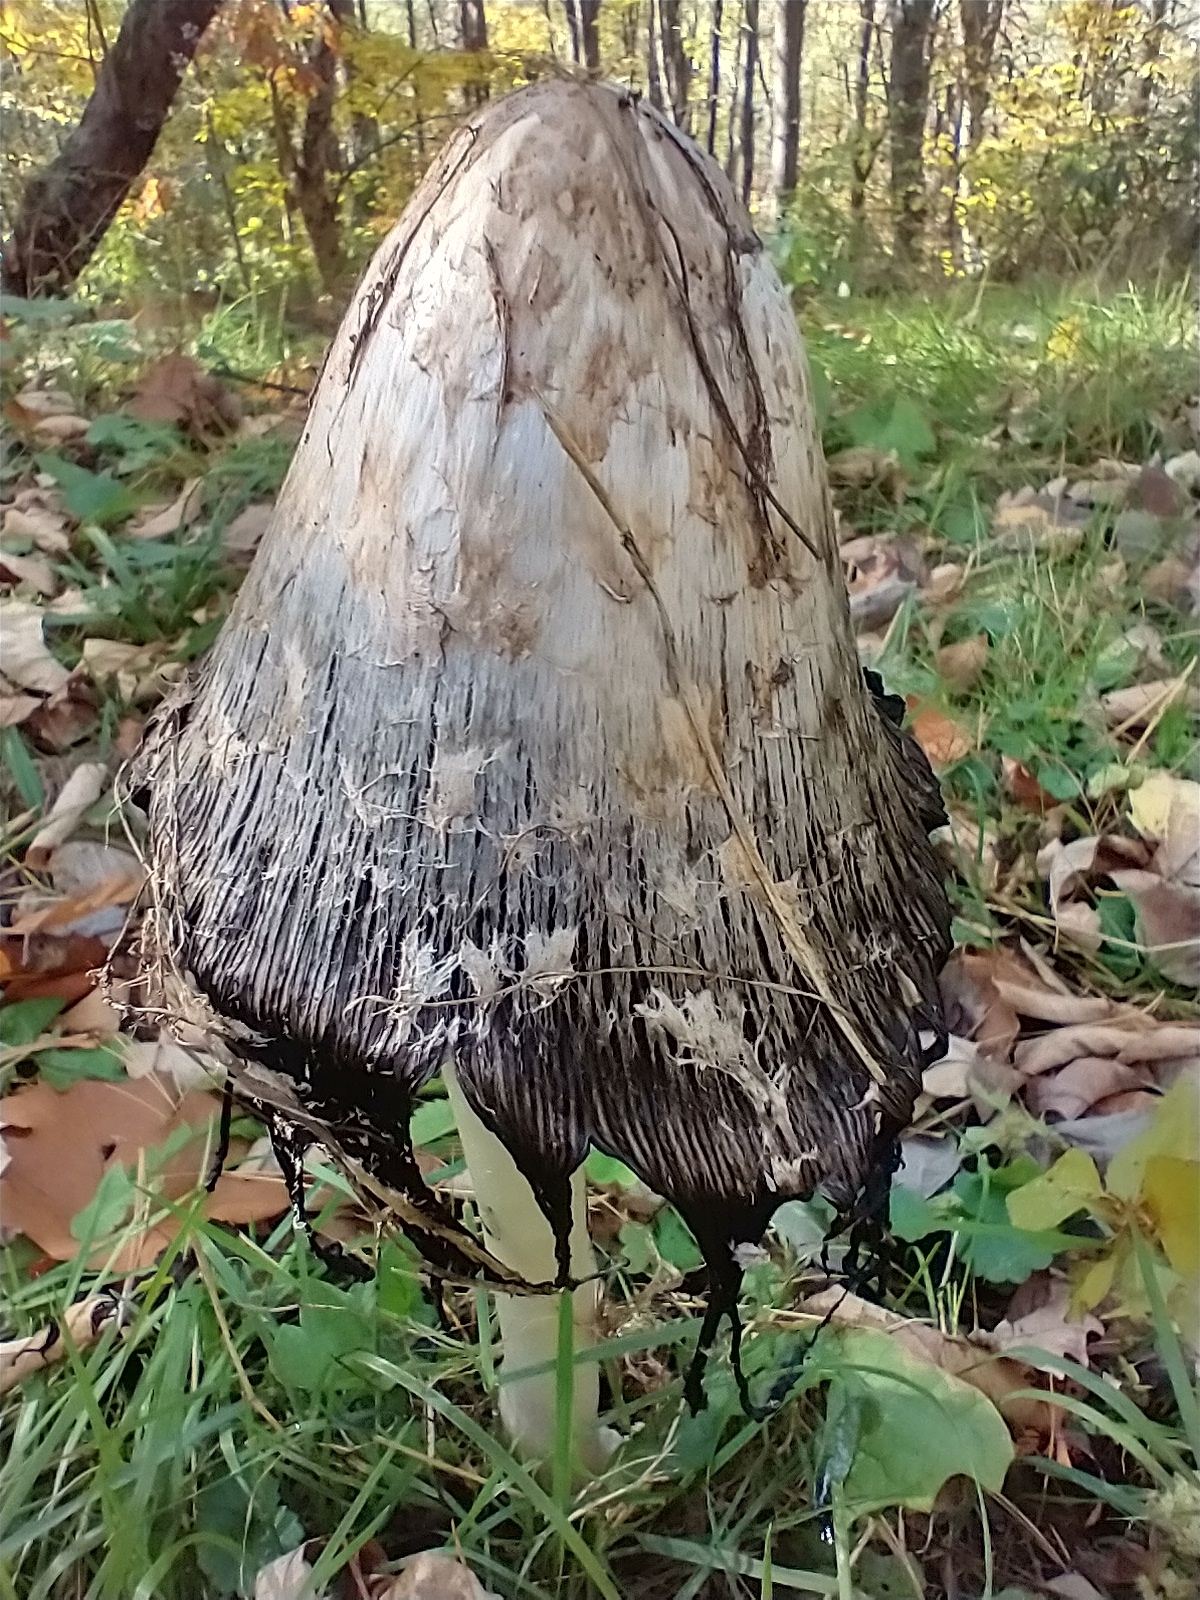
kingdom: Fungi
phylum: Basidiomycota
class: Agaricomycetes
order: Agaricales
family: Agaricaceae
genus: Coprinus
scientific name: Coprinus comatus
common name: Lawyer's wig
